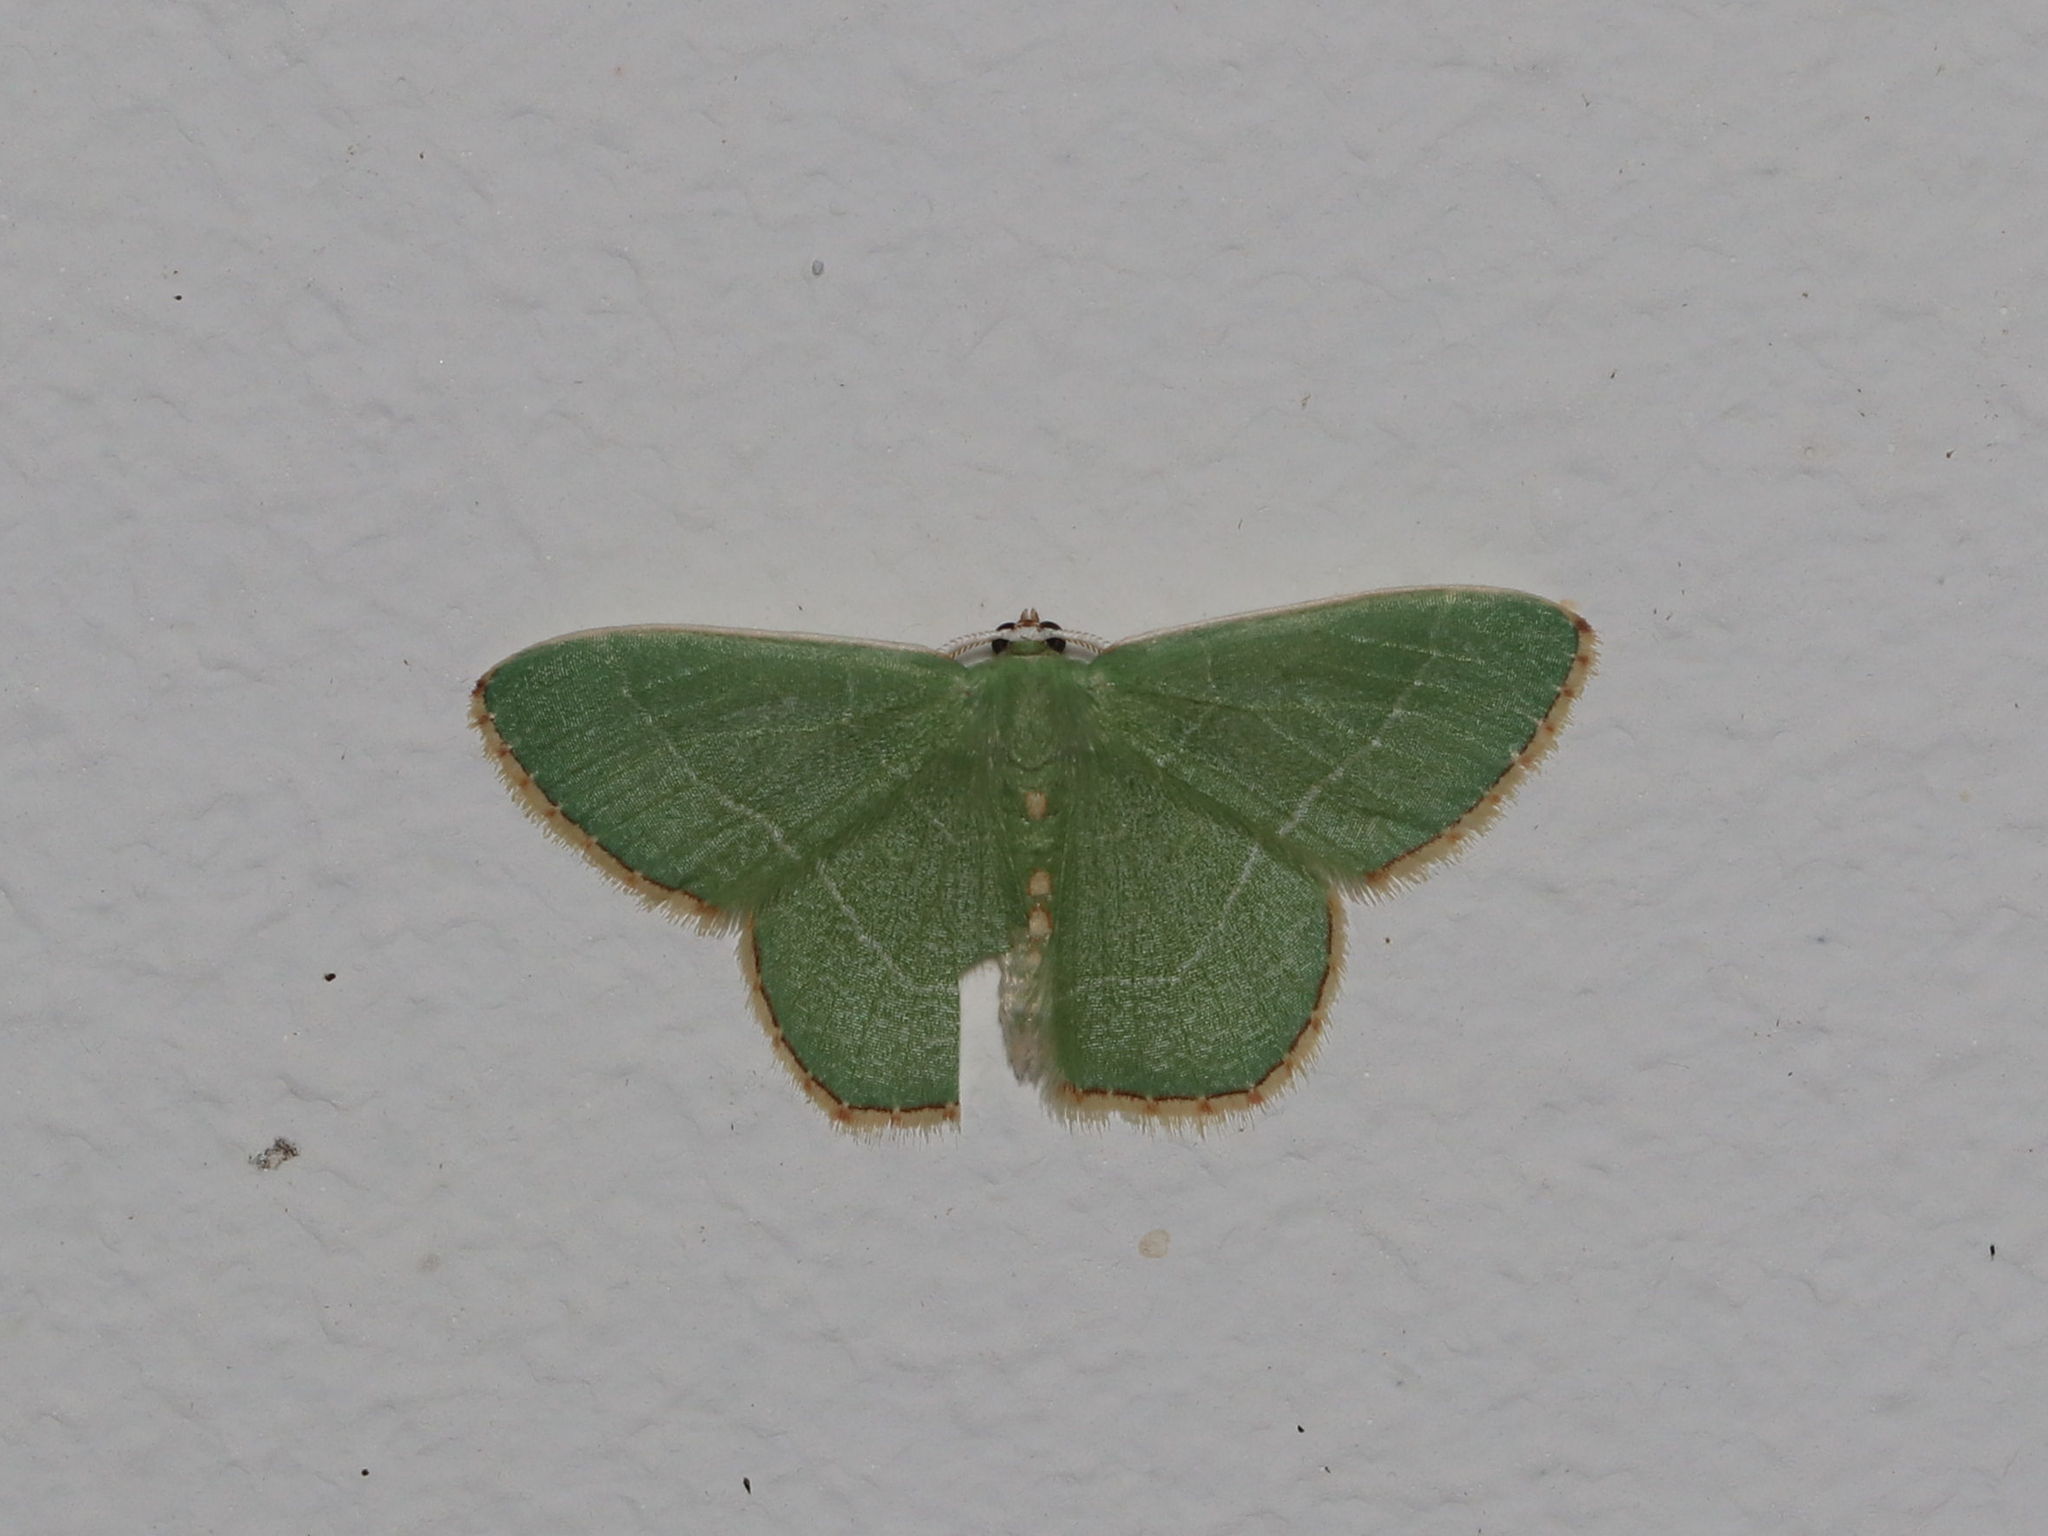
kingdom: Animalia
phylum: Arthropoda
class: Insecta
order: Lepidoptera
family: Geometridae
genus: Nemoria
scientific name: Nemoria bistriaria
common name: Red-fringed emerald
